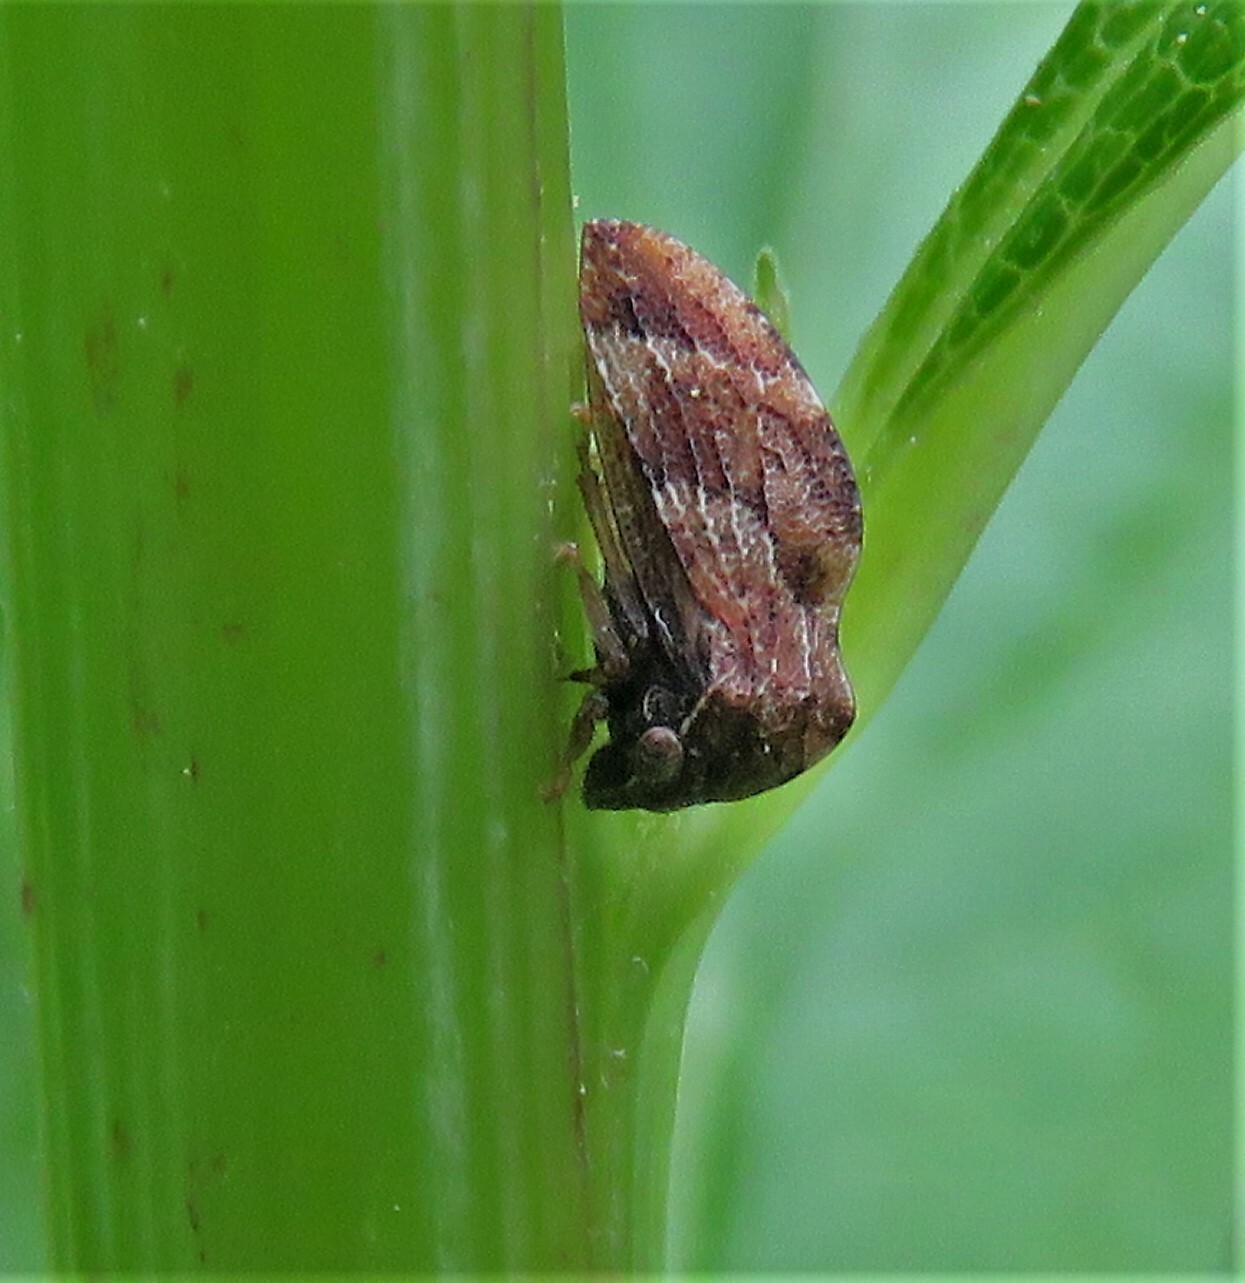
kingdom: Animalia
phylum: Arthropoda
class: Insecta
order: Hemiptera
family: Membracidae
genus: Publilia
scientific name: Publilia concava
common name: Aster treehopper
